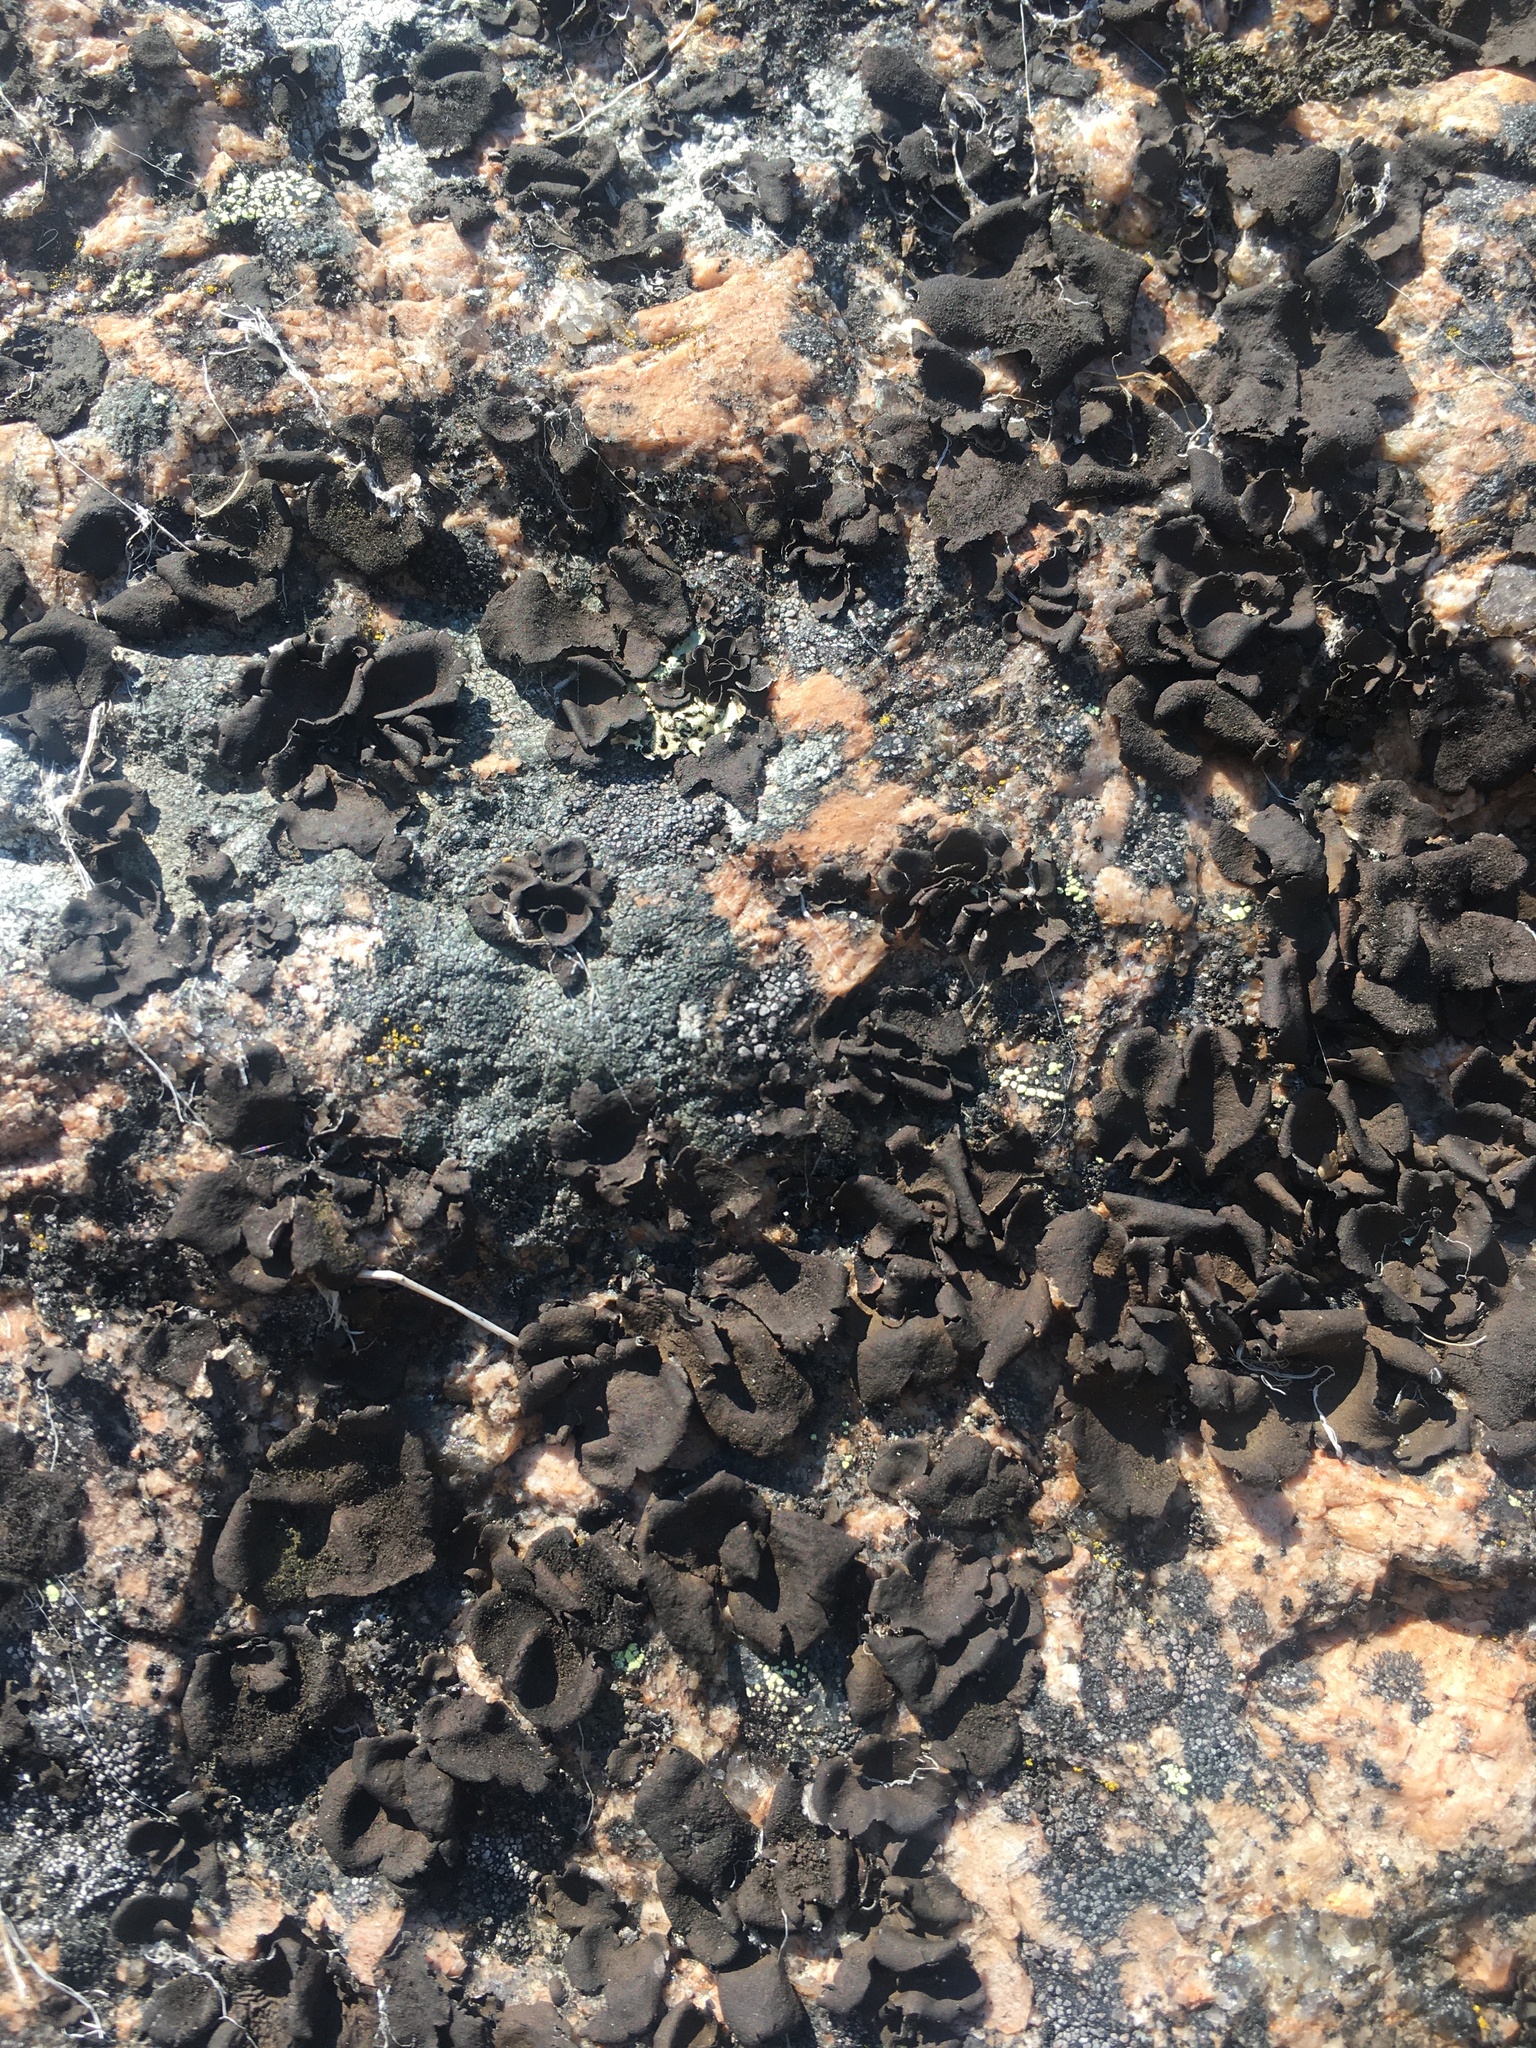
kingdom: Fungi
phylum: Ascomycota
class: Lecanoromycetes
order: Umbilicariales
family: Umbilicariaceae
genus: Umbilicaria
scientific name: Umbilicaria deusta
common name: Peppered rock tripe
